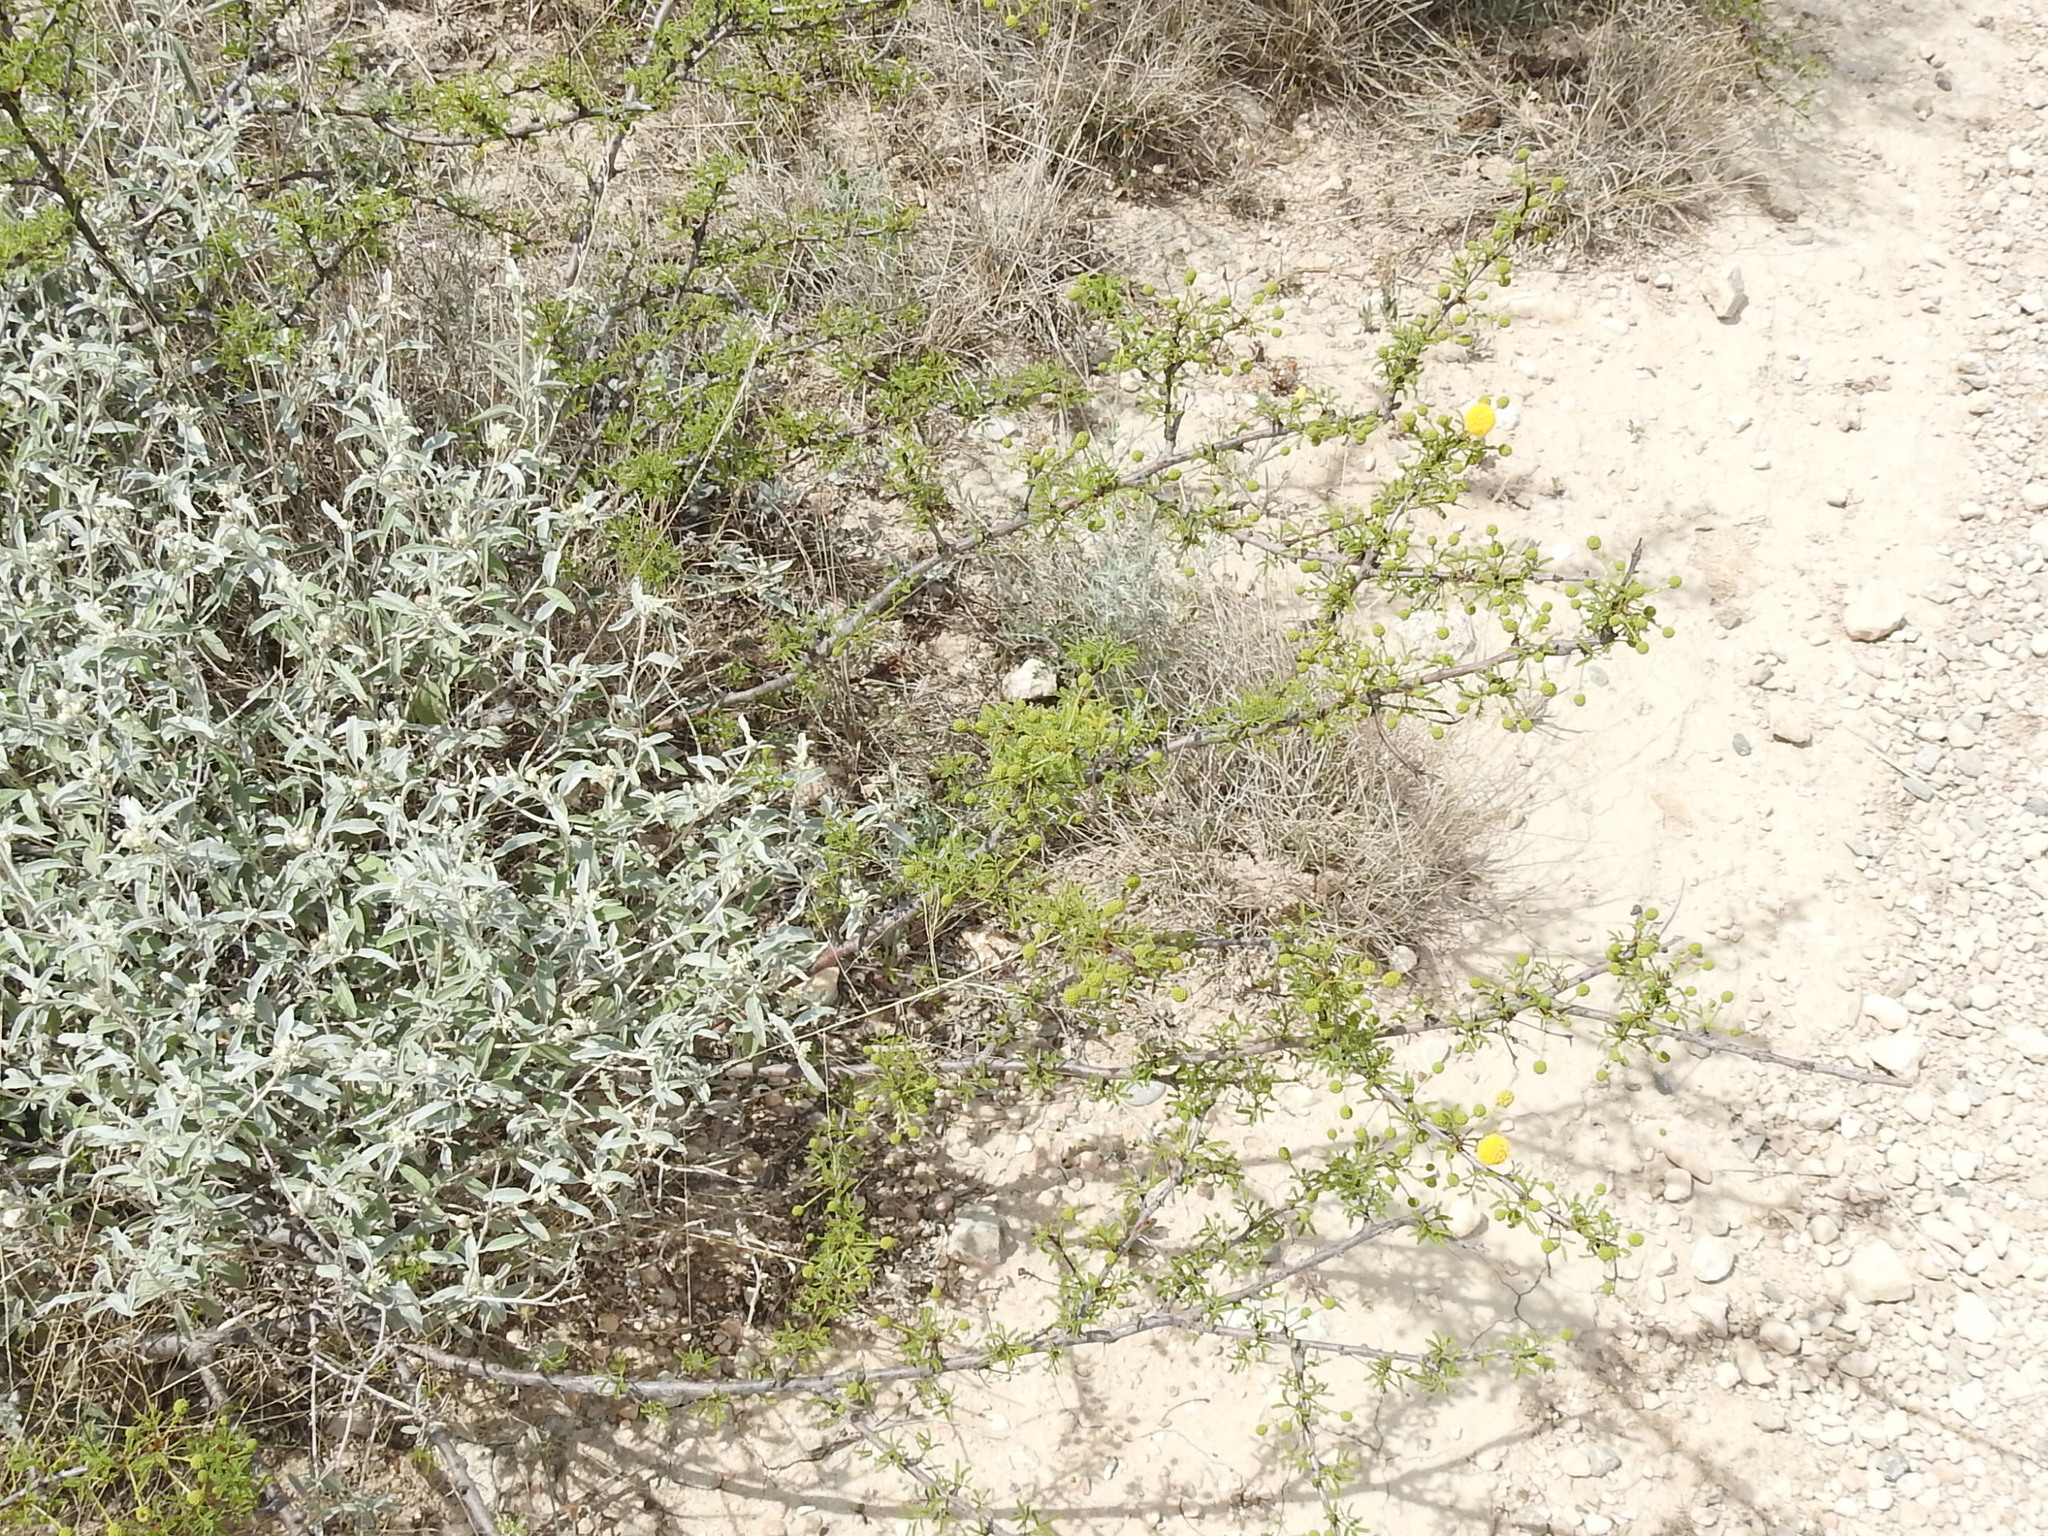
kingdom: Plantae
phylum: Tracheophyta
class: Magnoliopsida
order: Fabales
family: Fabaceae
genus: Vachellia
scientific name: Vachellia vernicosa
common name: Viscid acacia
